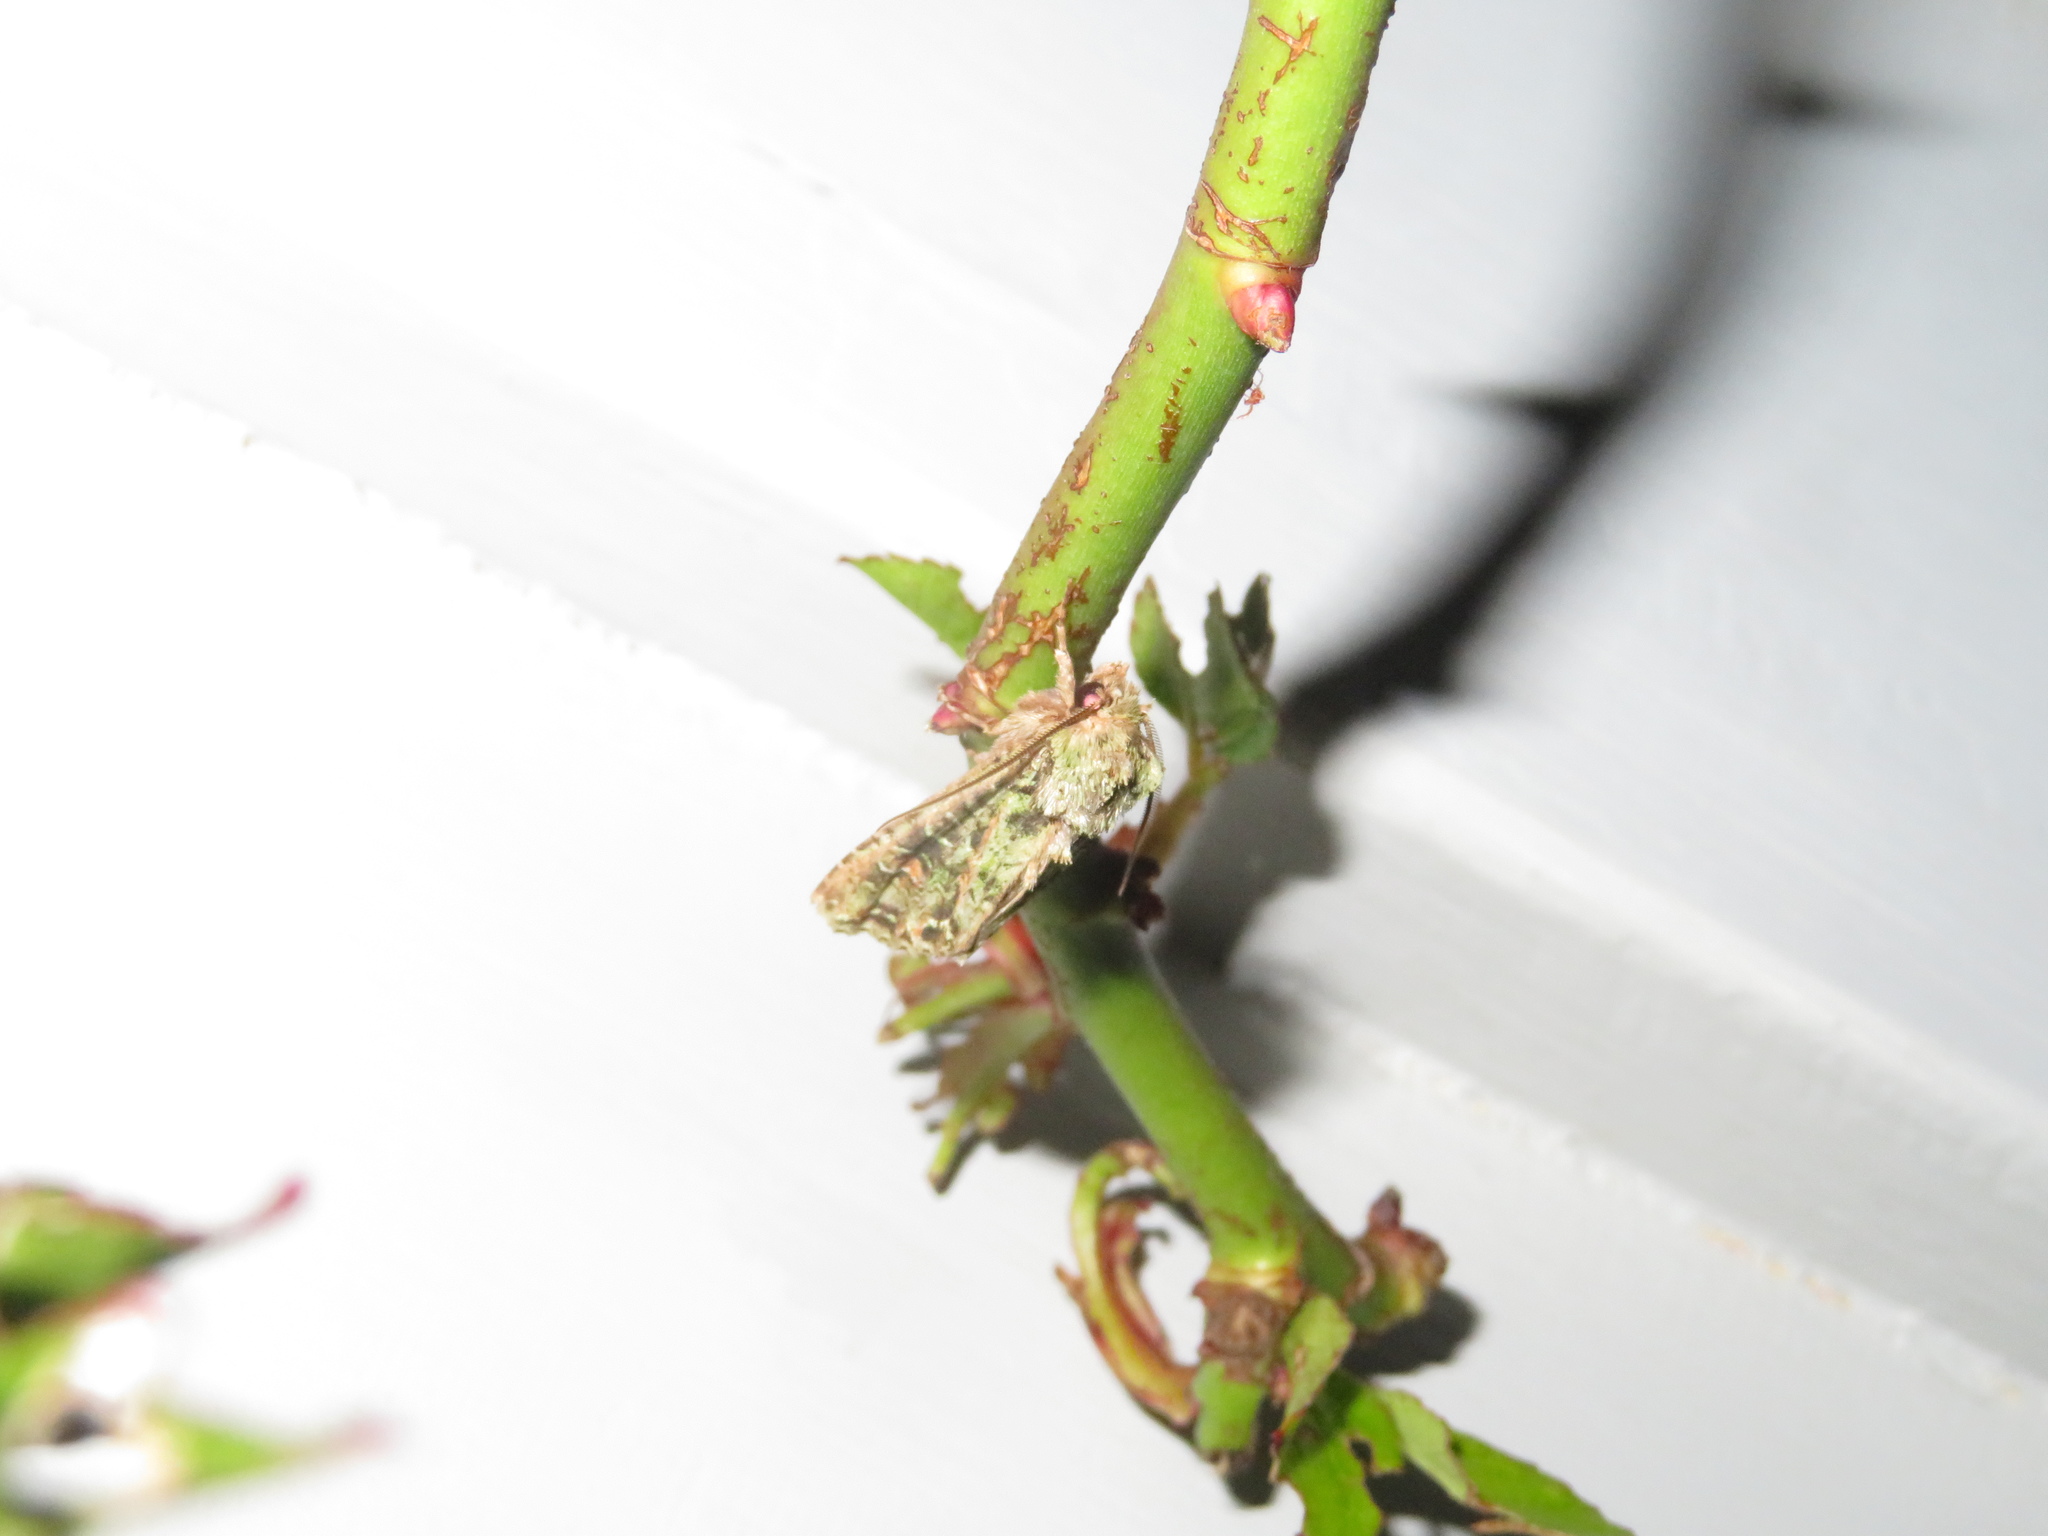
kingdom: Animalia
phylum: Arthropoda
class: Insecta
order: Lepidoptera
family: Noctuidae
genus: Ichneutica
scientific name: Ichneutica
